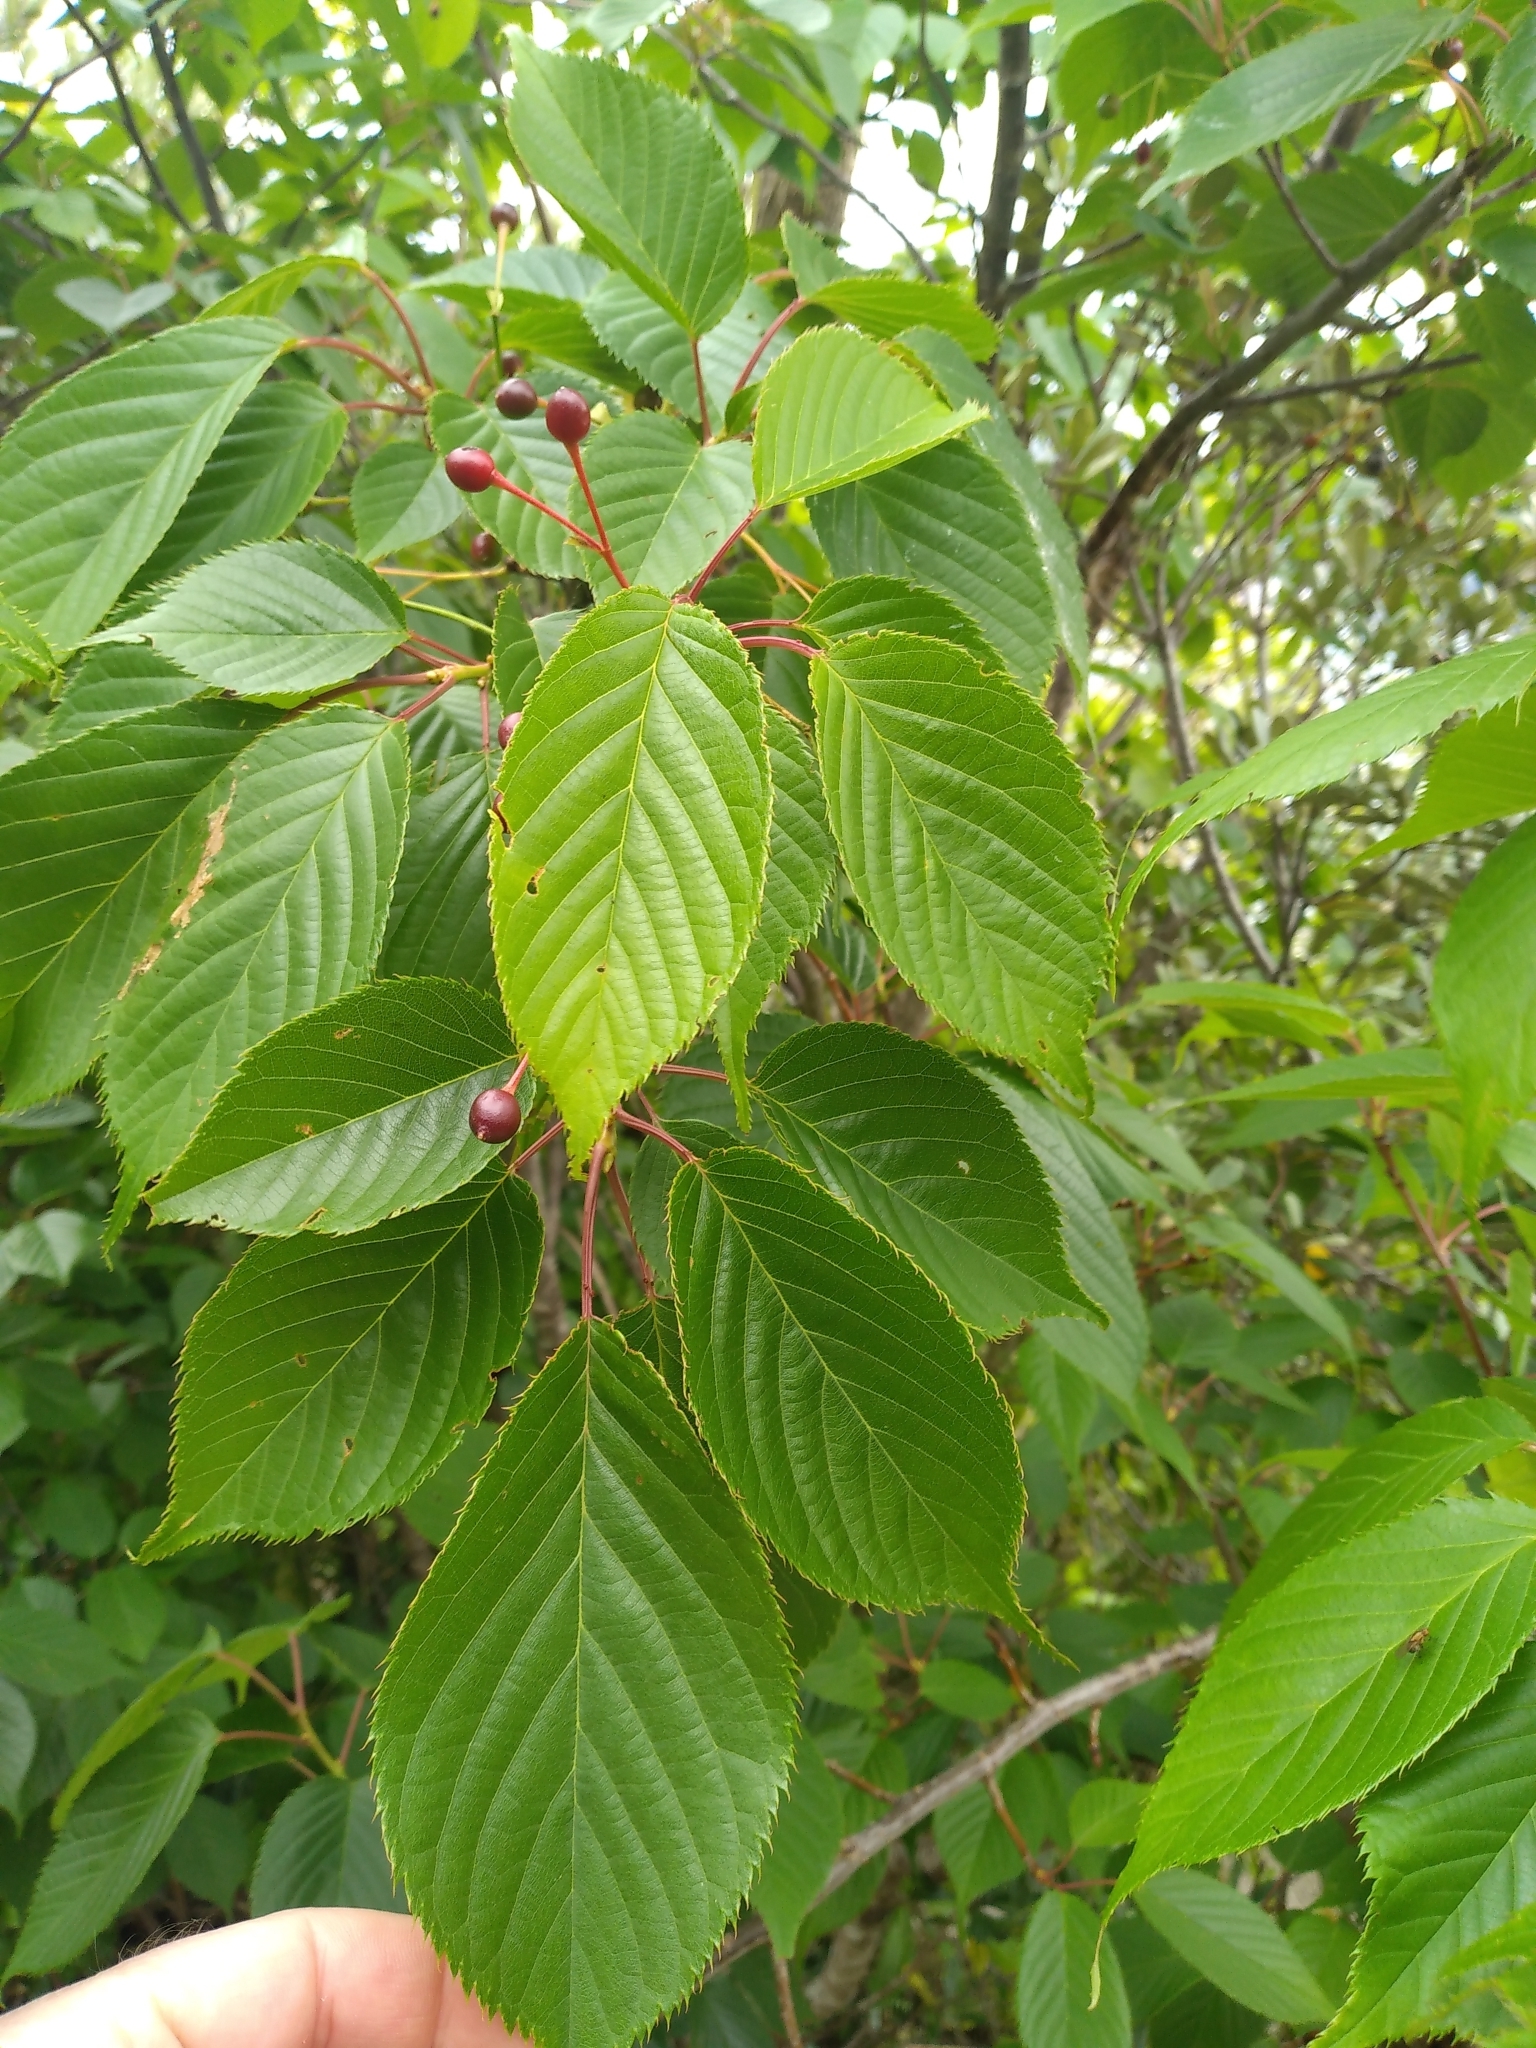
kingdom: Plantae
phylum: Tracheophyta
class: Magnoliopsida
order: Rosales
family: Rosaceae
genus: Prunus
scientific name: Prunus serrulata
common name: Japanese cherry
